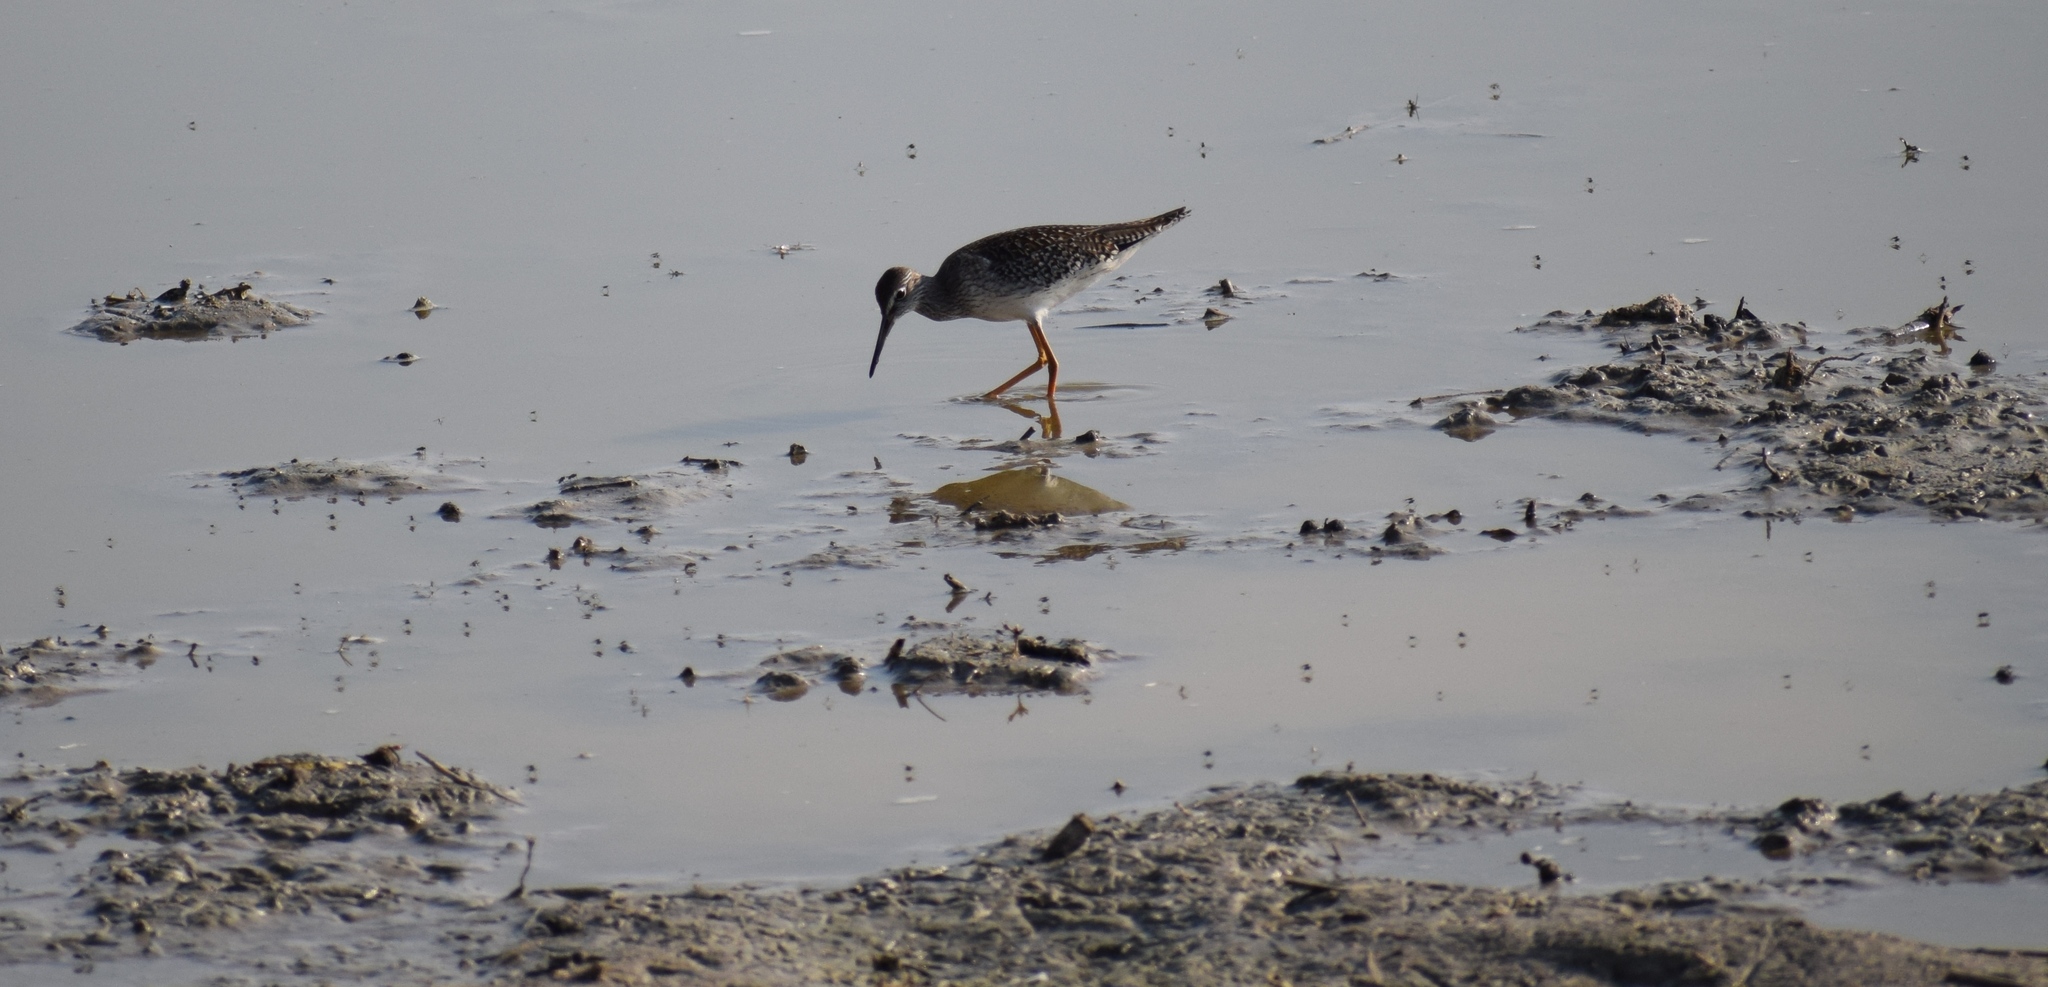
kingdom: Animalia
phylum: Chordata
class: Aves
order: Charadriiformes
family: Scolopacidae
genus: Tringa
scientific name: Tringa totanus
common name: Common redshank
